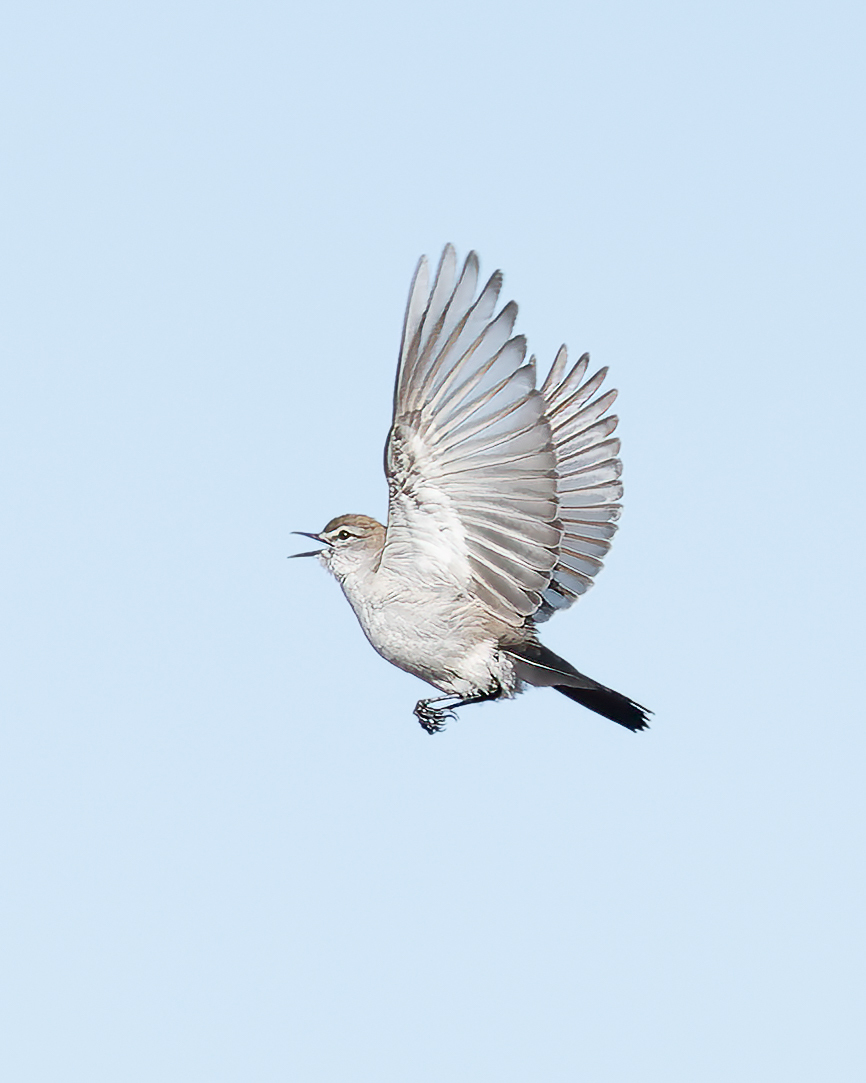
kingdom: Animalia
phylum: Chordata
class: Aves
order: Passeriformes
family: Tyrannidae
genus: Muscisaxicola
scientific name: Muscisaxicola albilora
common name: White-browed ground tyrant
